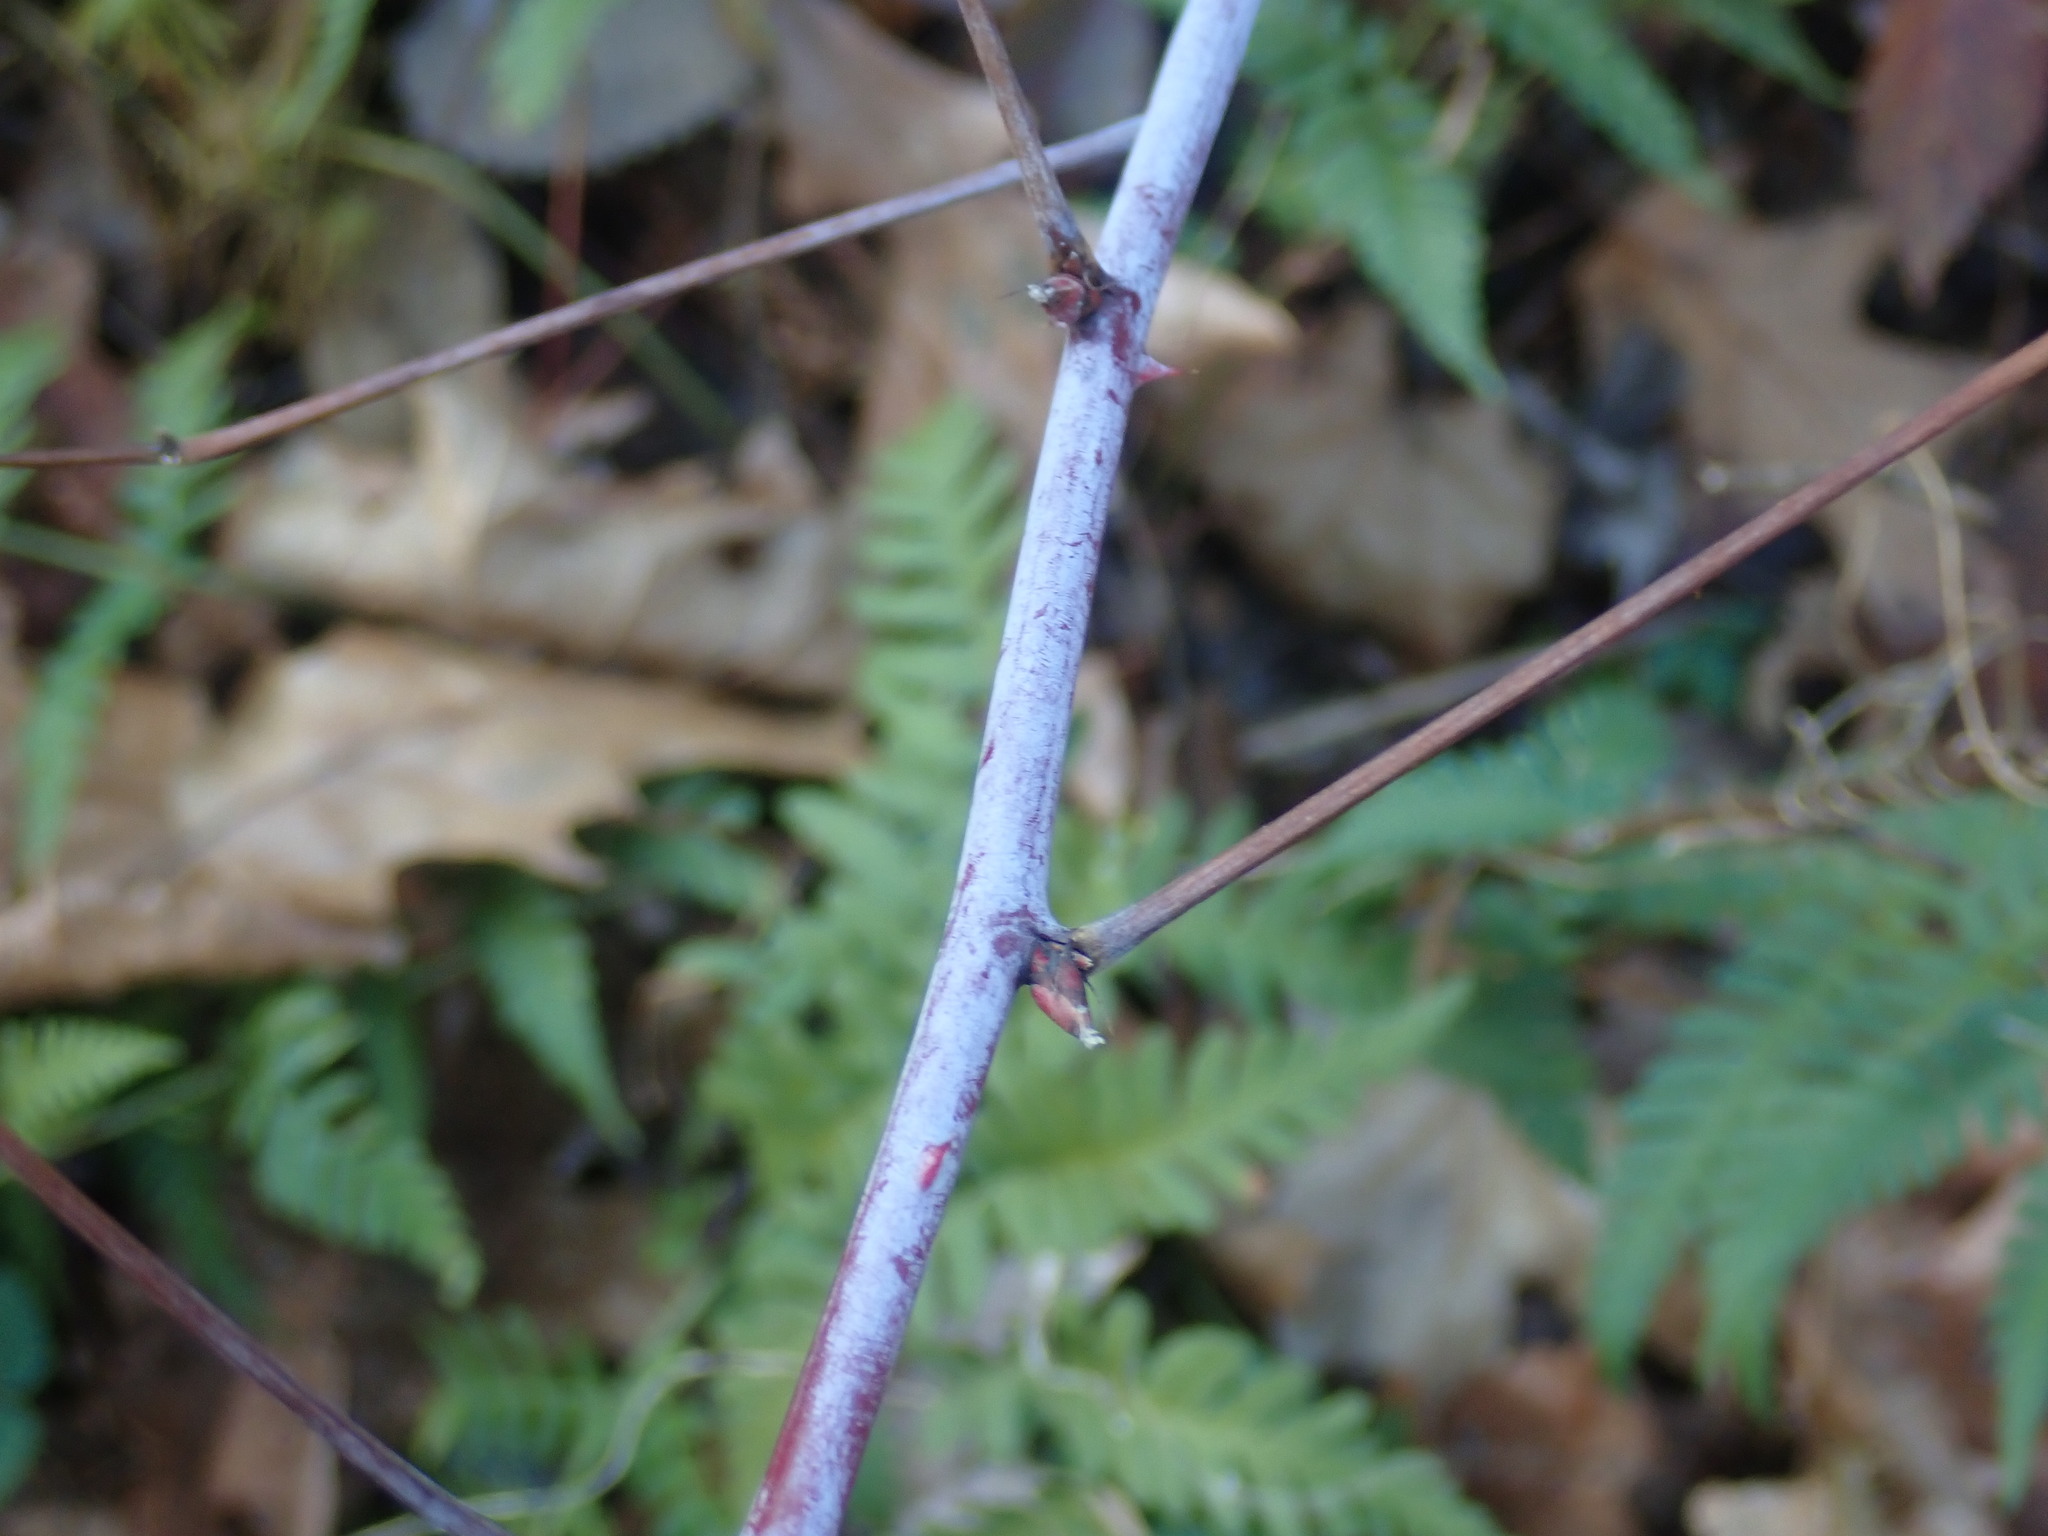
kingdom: Plantae
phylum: Tracheophyta
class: Magnoliopsida
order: Rosales
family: Rosaceae
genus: Rubus
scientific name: Rubus occidentalis
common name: Black raspberry
